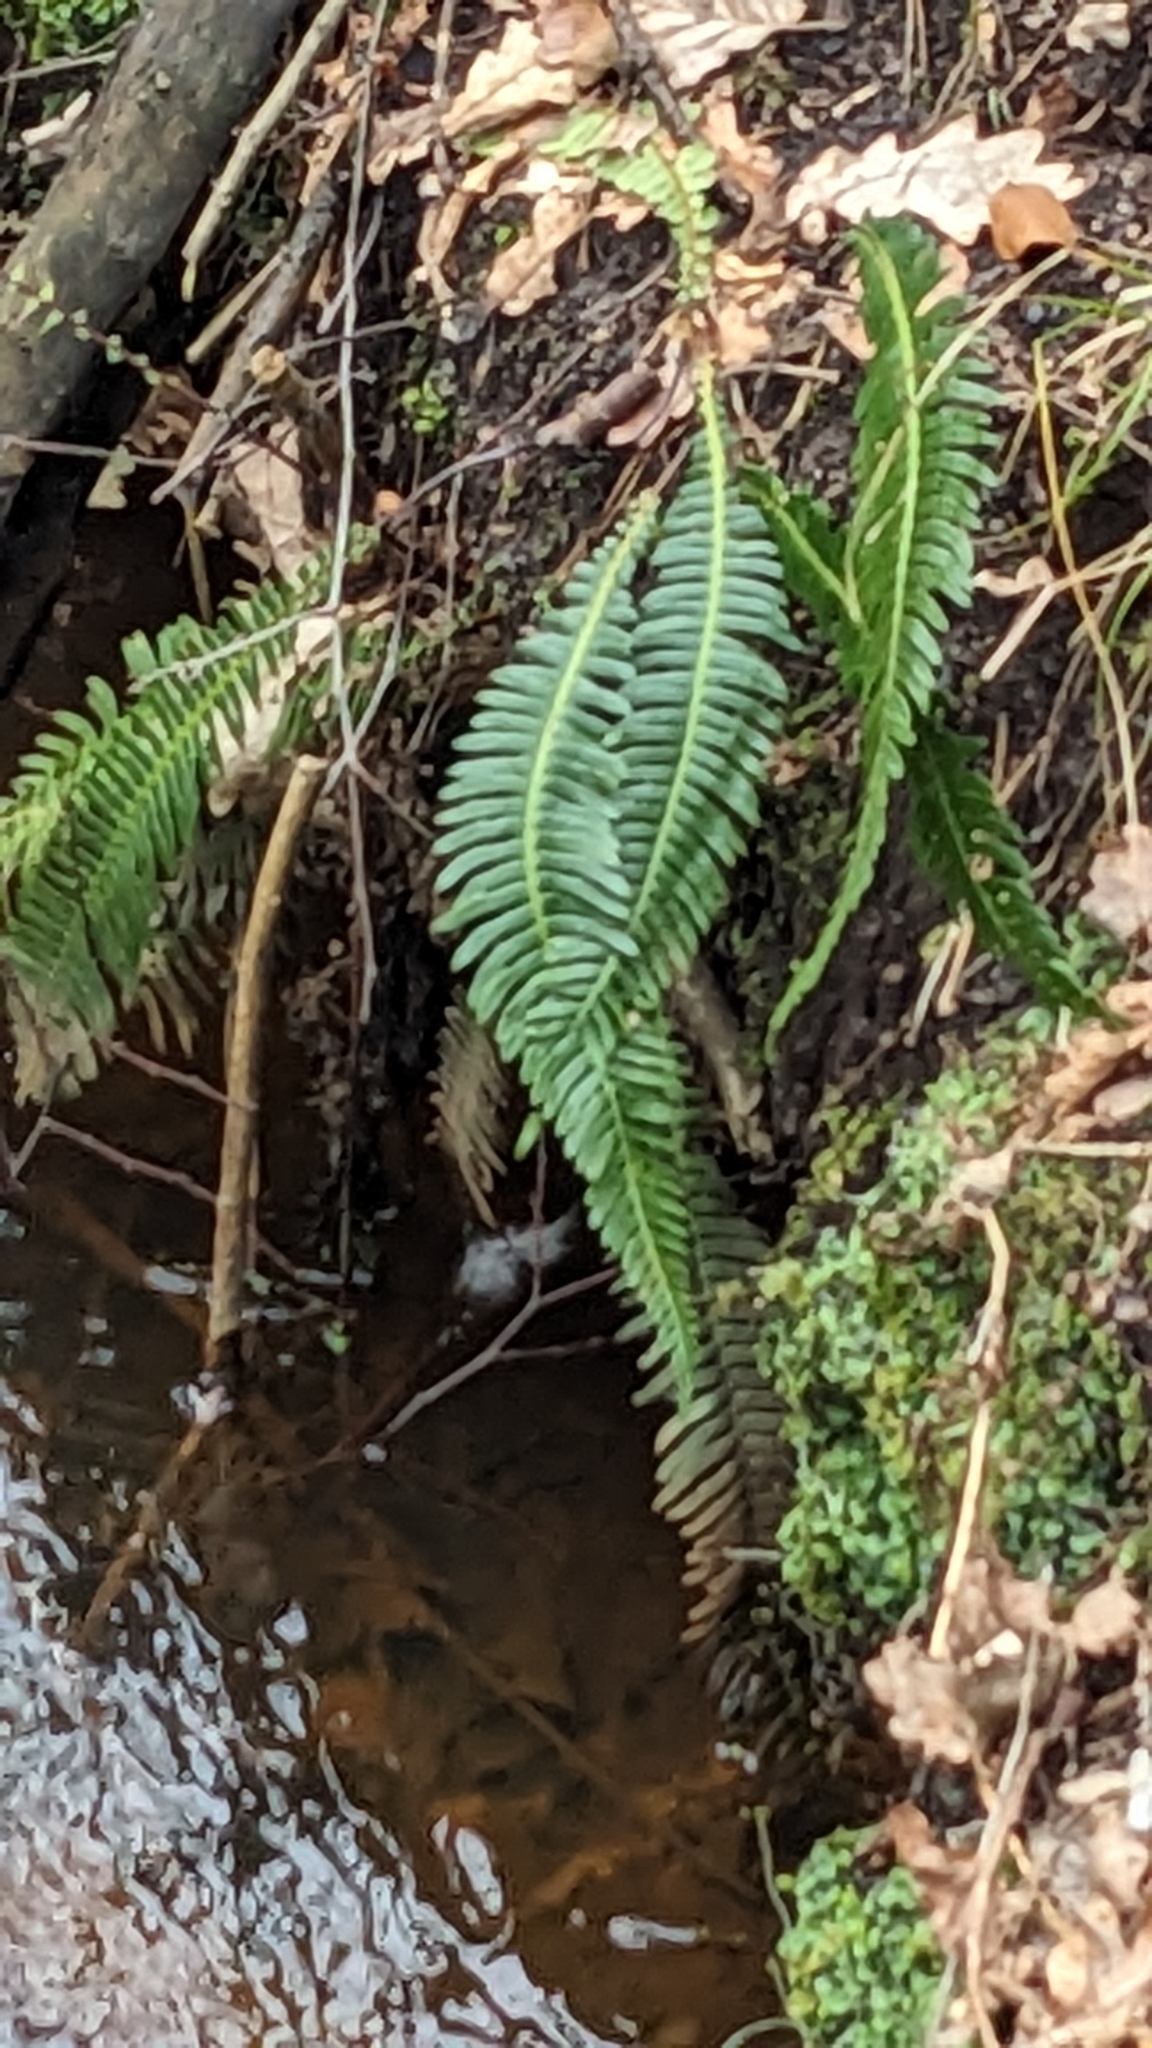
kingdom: Plantae
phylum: Tracheophyta
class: Polypodiopsida
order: Polypodiales
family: Blechnaceae
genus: Struthiopteris
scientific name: Struthiopteris spicant
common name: Deer fern
